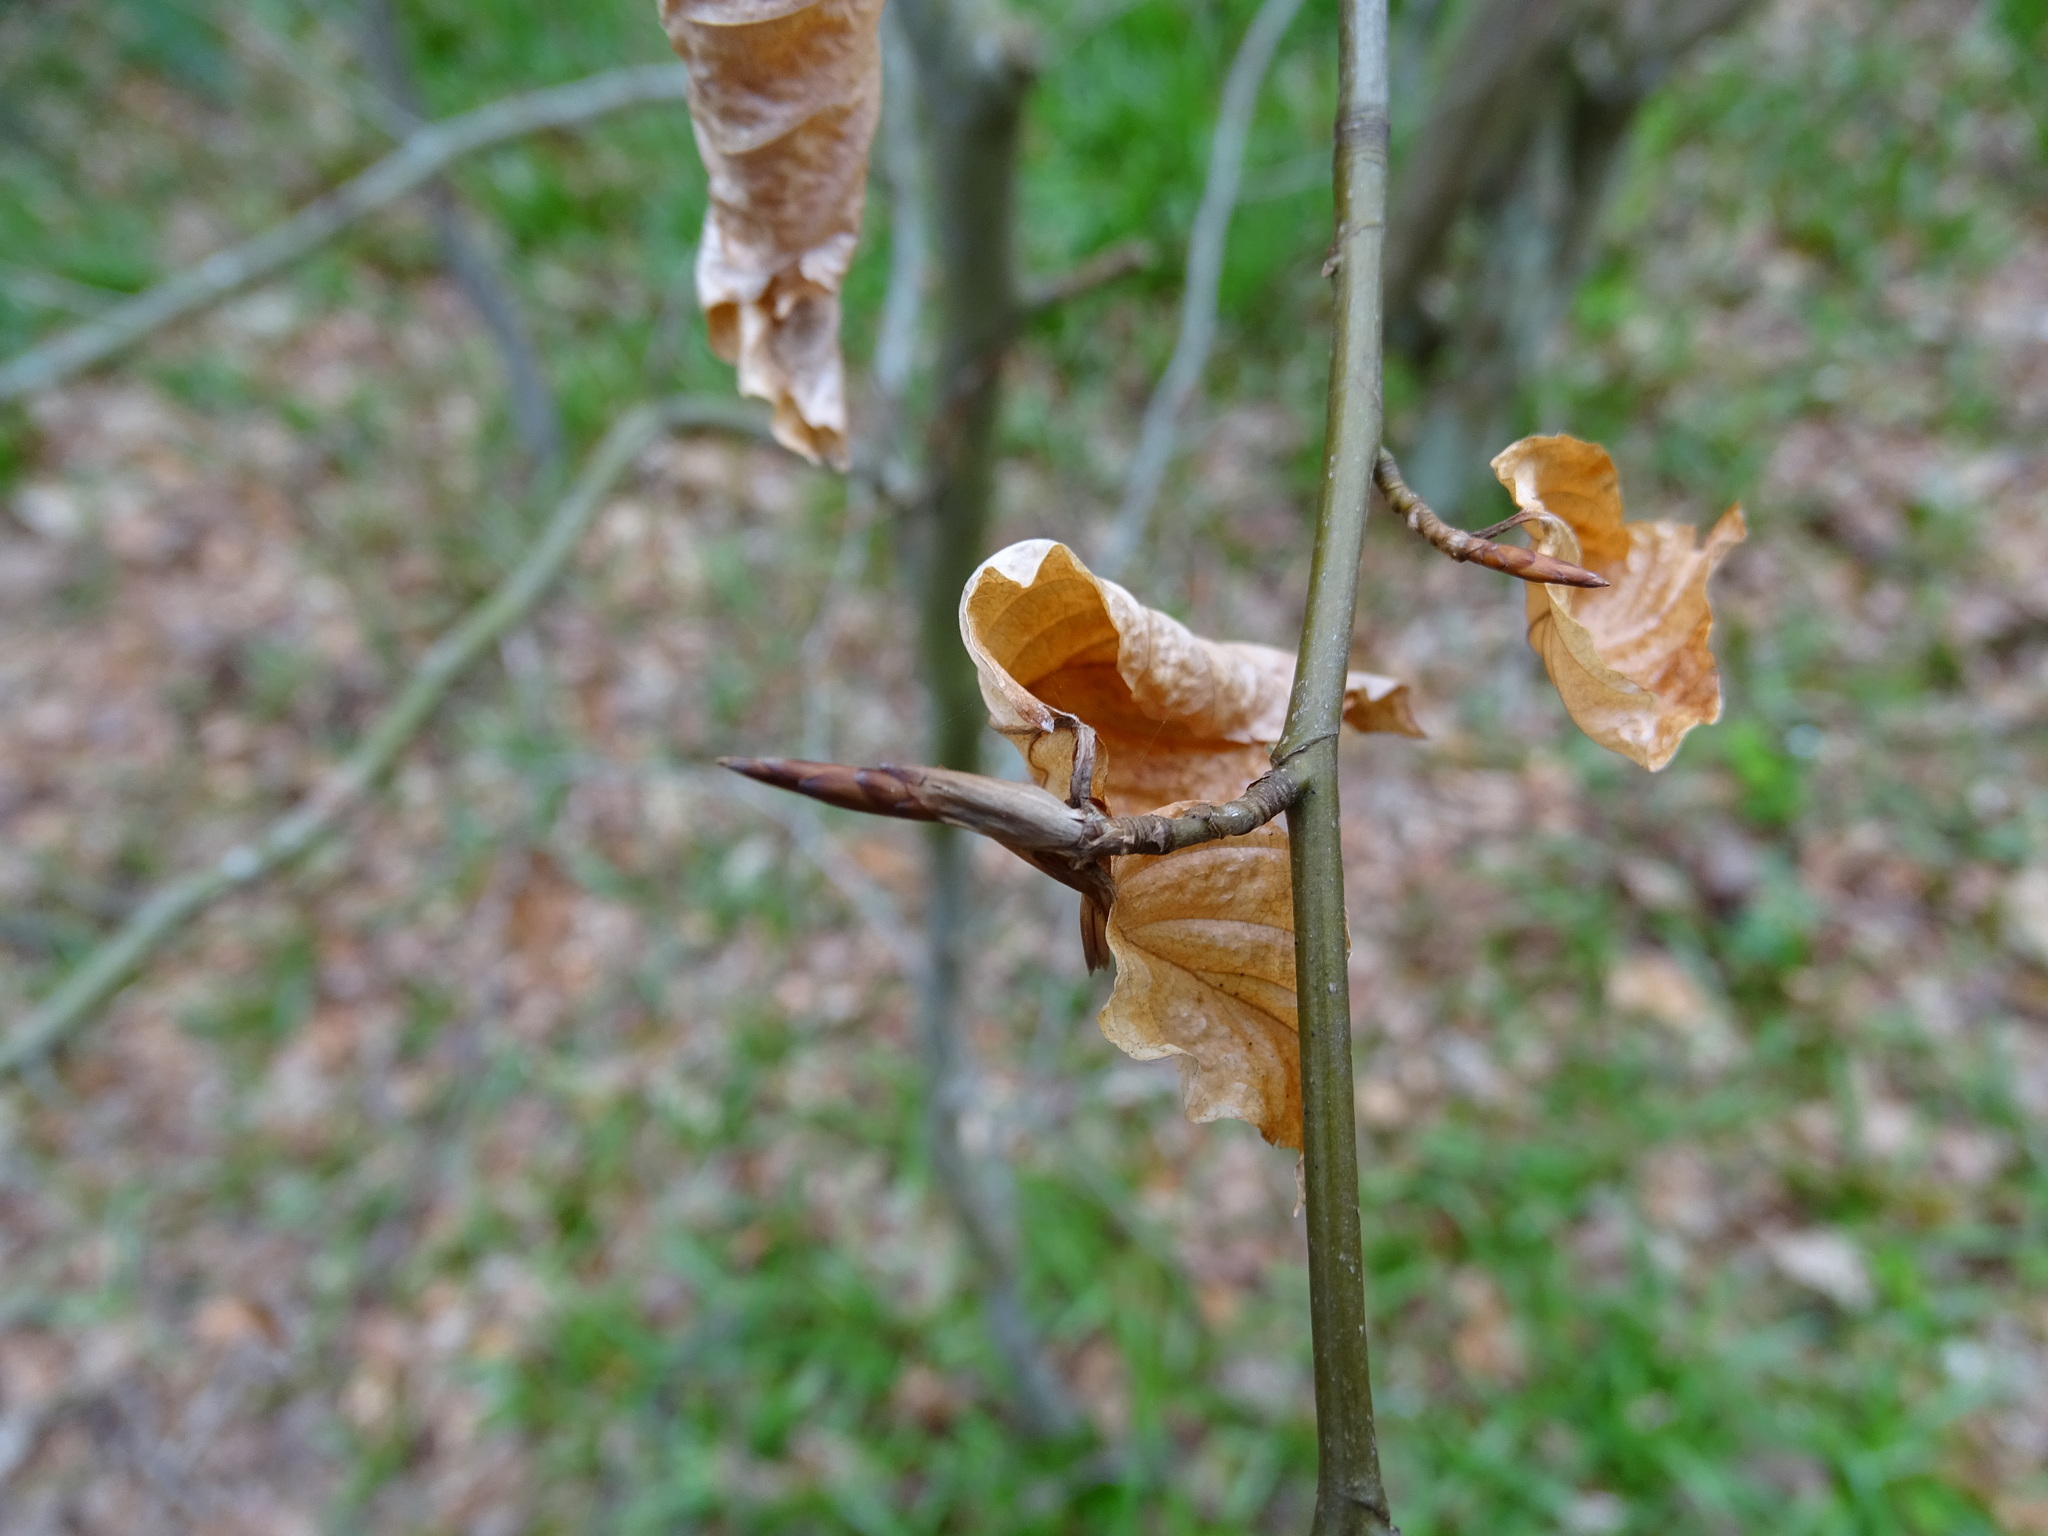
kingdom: Plantae
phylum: Tracheophyta
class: Magnoliopsida
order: Fagales
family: Fagaceae
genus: Fagus
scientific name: Fagus sylvatica
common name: Beech
